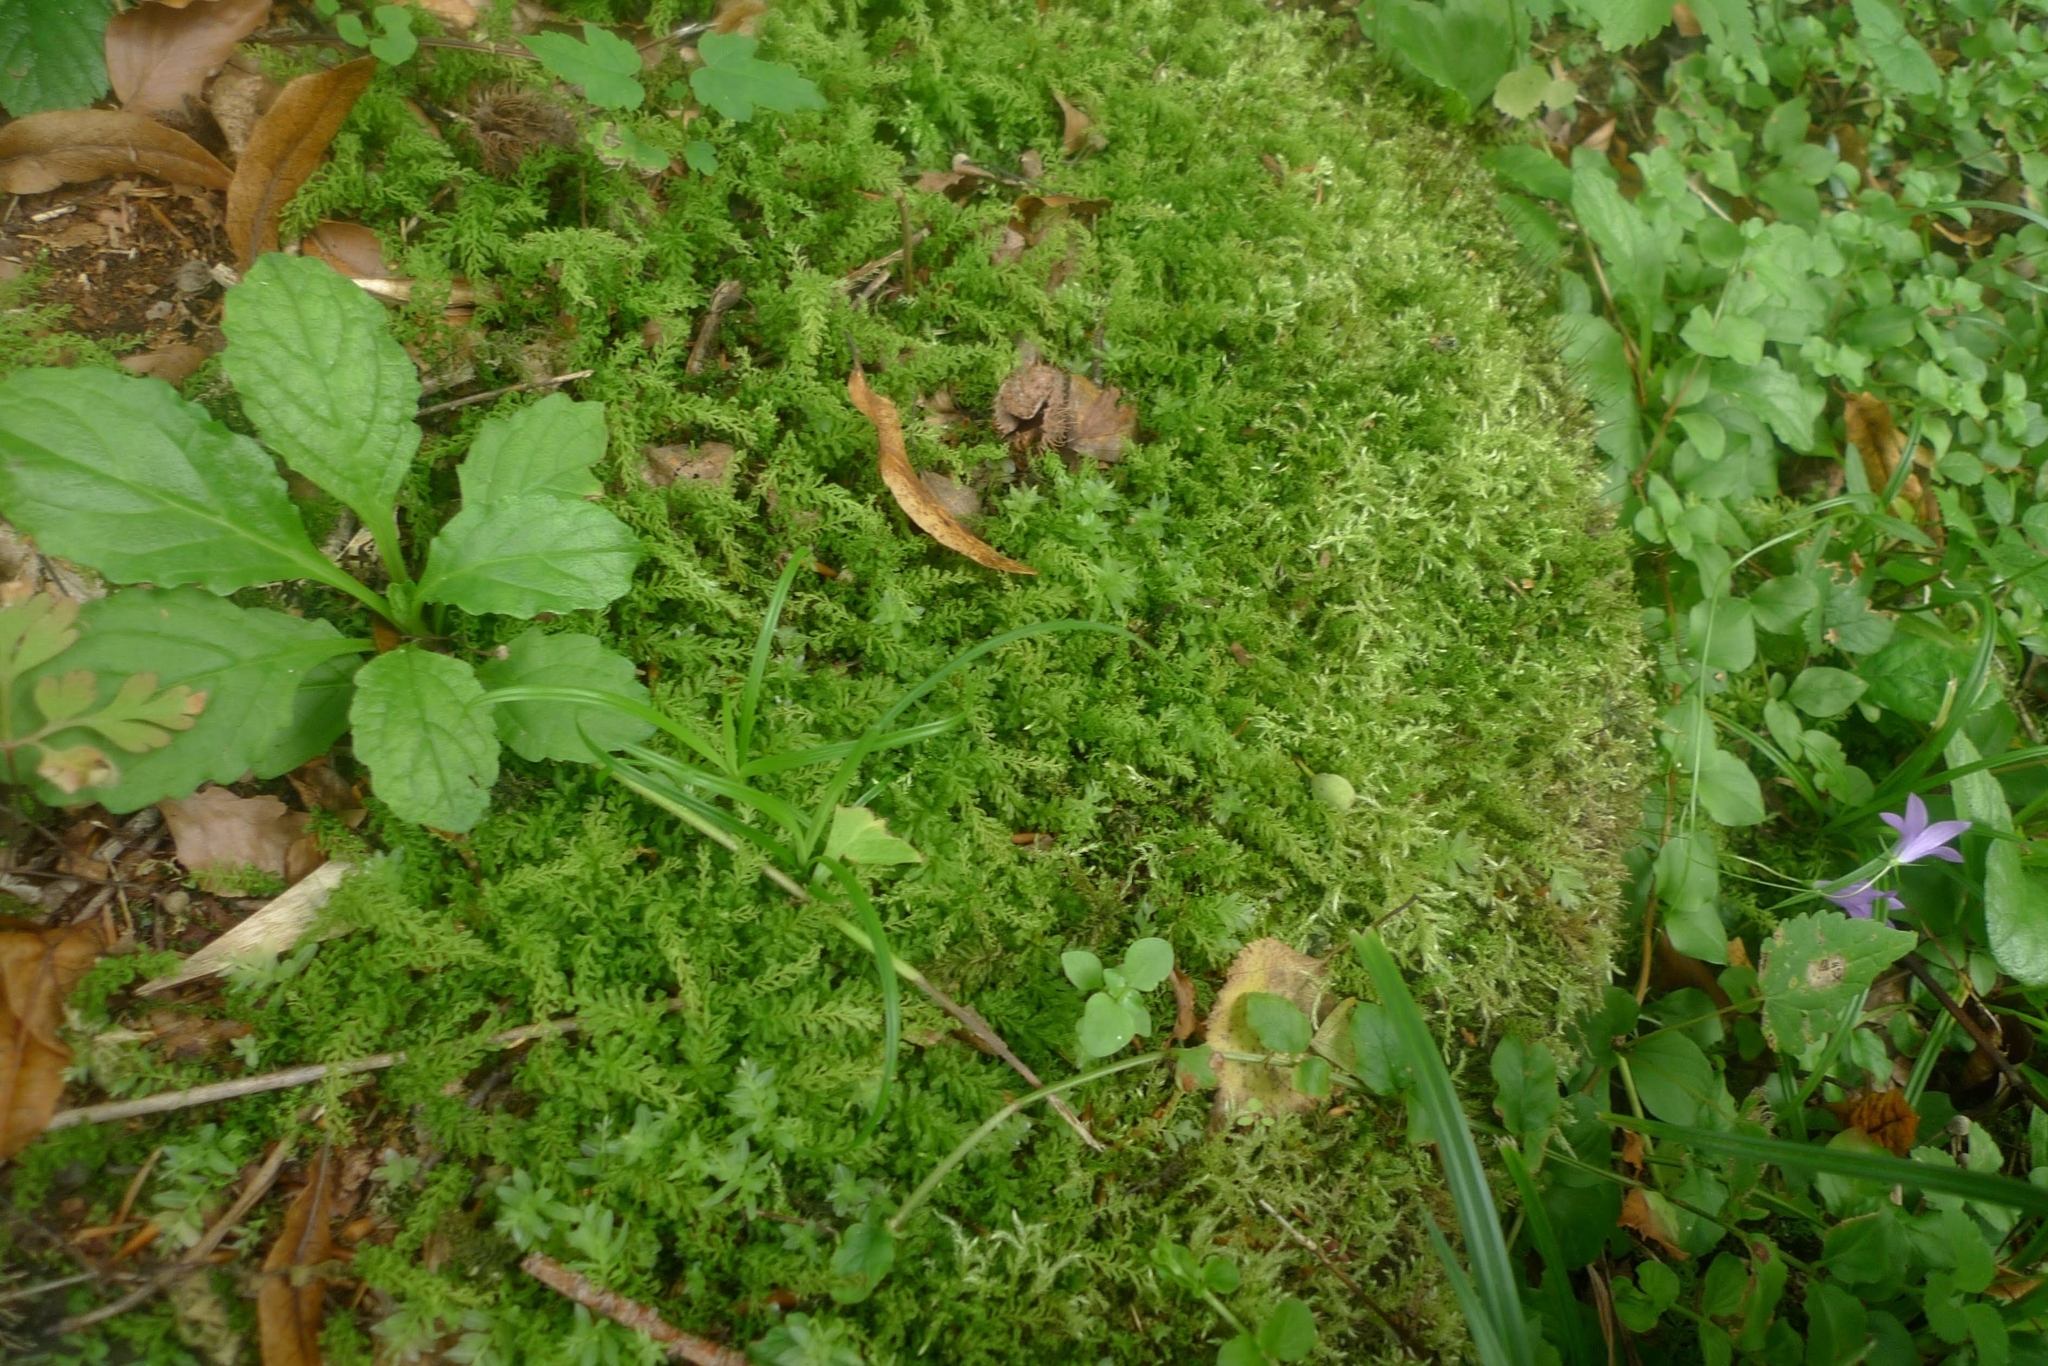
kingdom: Plantae
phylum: Bryophyta
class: Bryopsida
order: Bryales
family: Mniaceae
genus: Plagiomnium
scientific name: Plagiomnium undulatum
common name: Hart's-tongue thyme-moss
